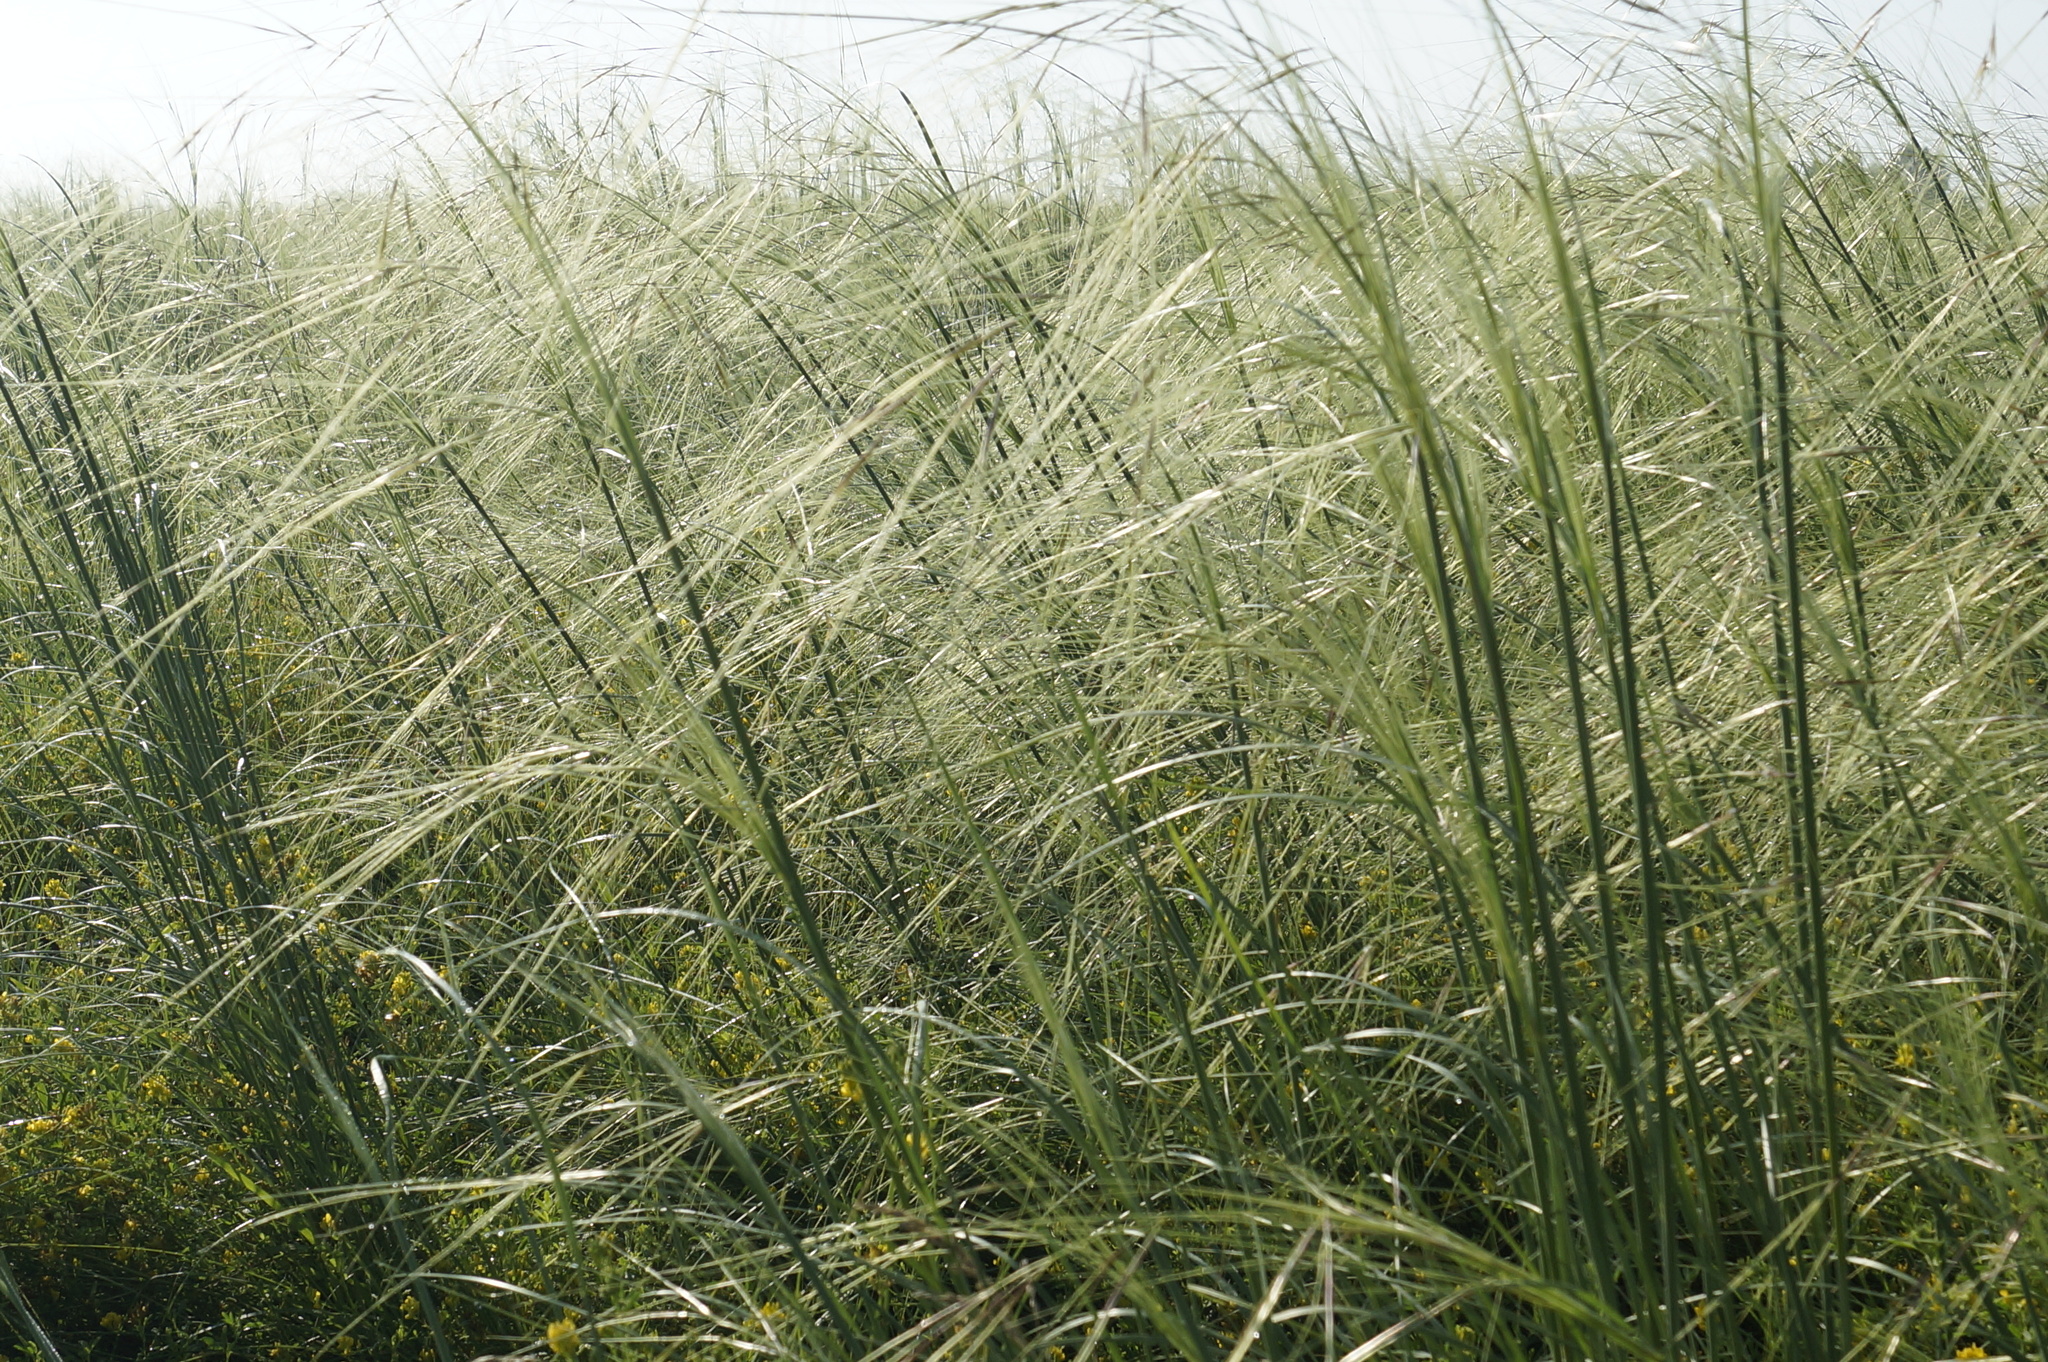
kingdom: Plantae
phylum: Tracheophyta
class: Liliopsida
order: Poales
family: Poaceae
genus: Stipa
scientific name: Stipa capillata
